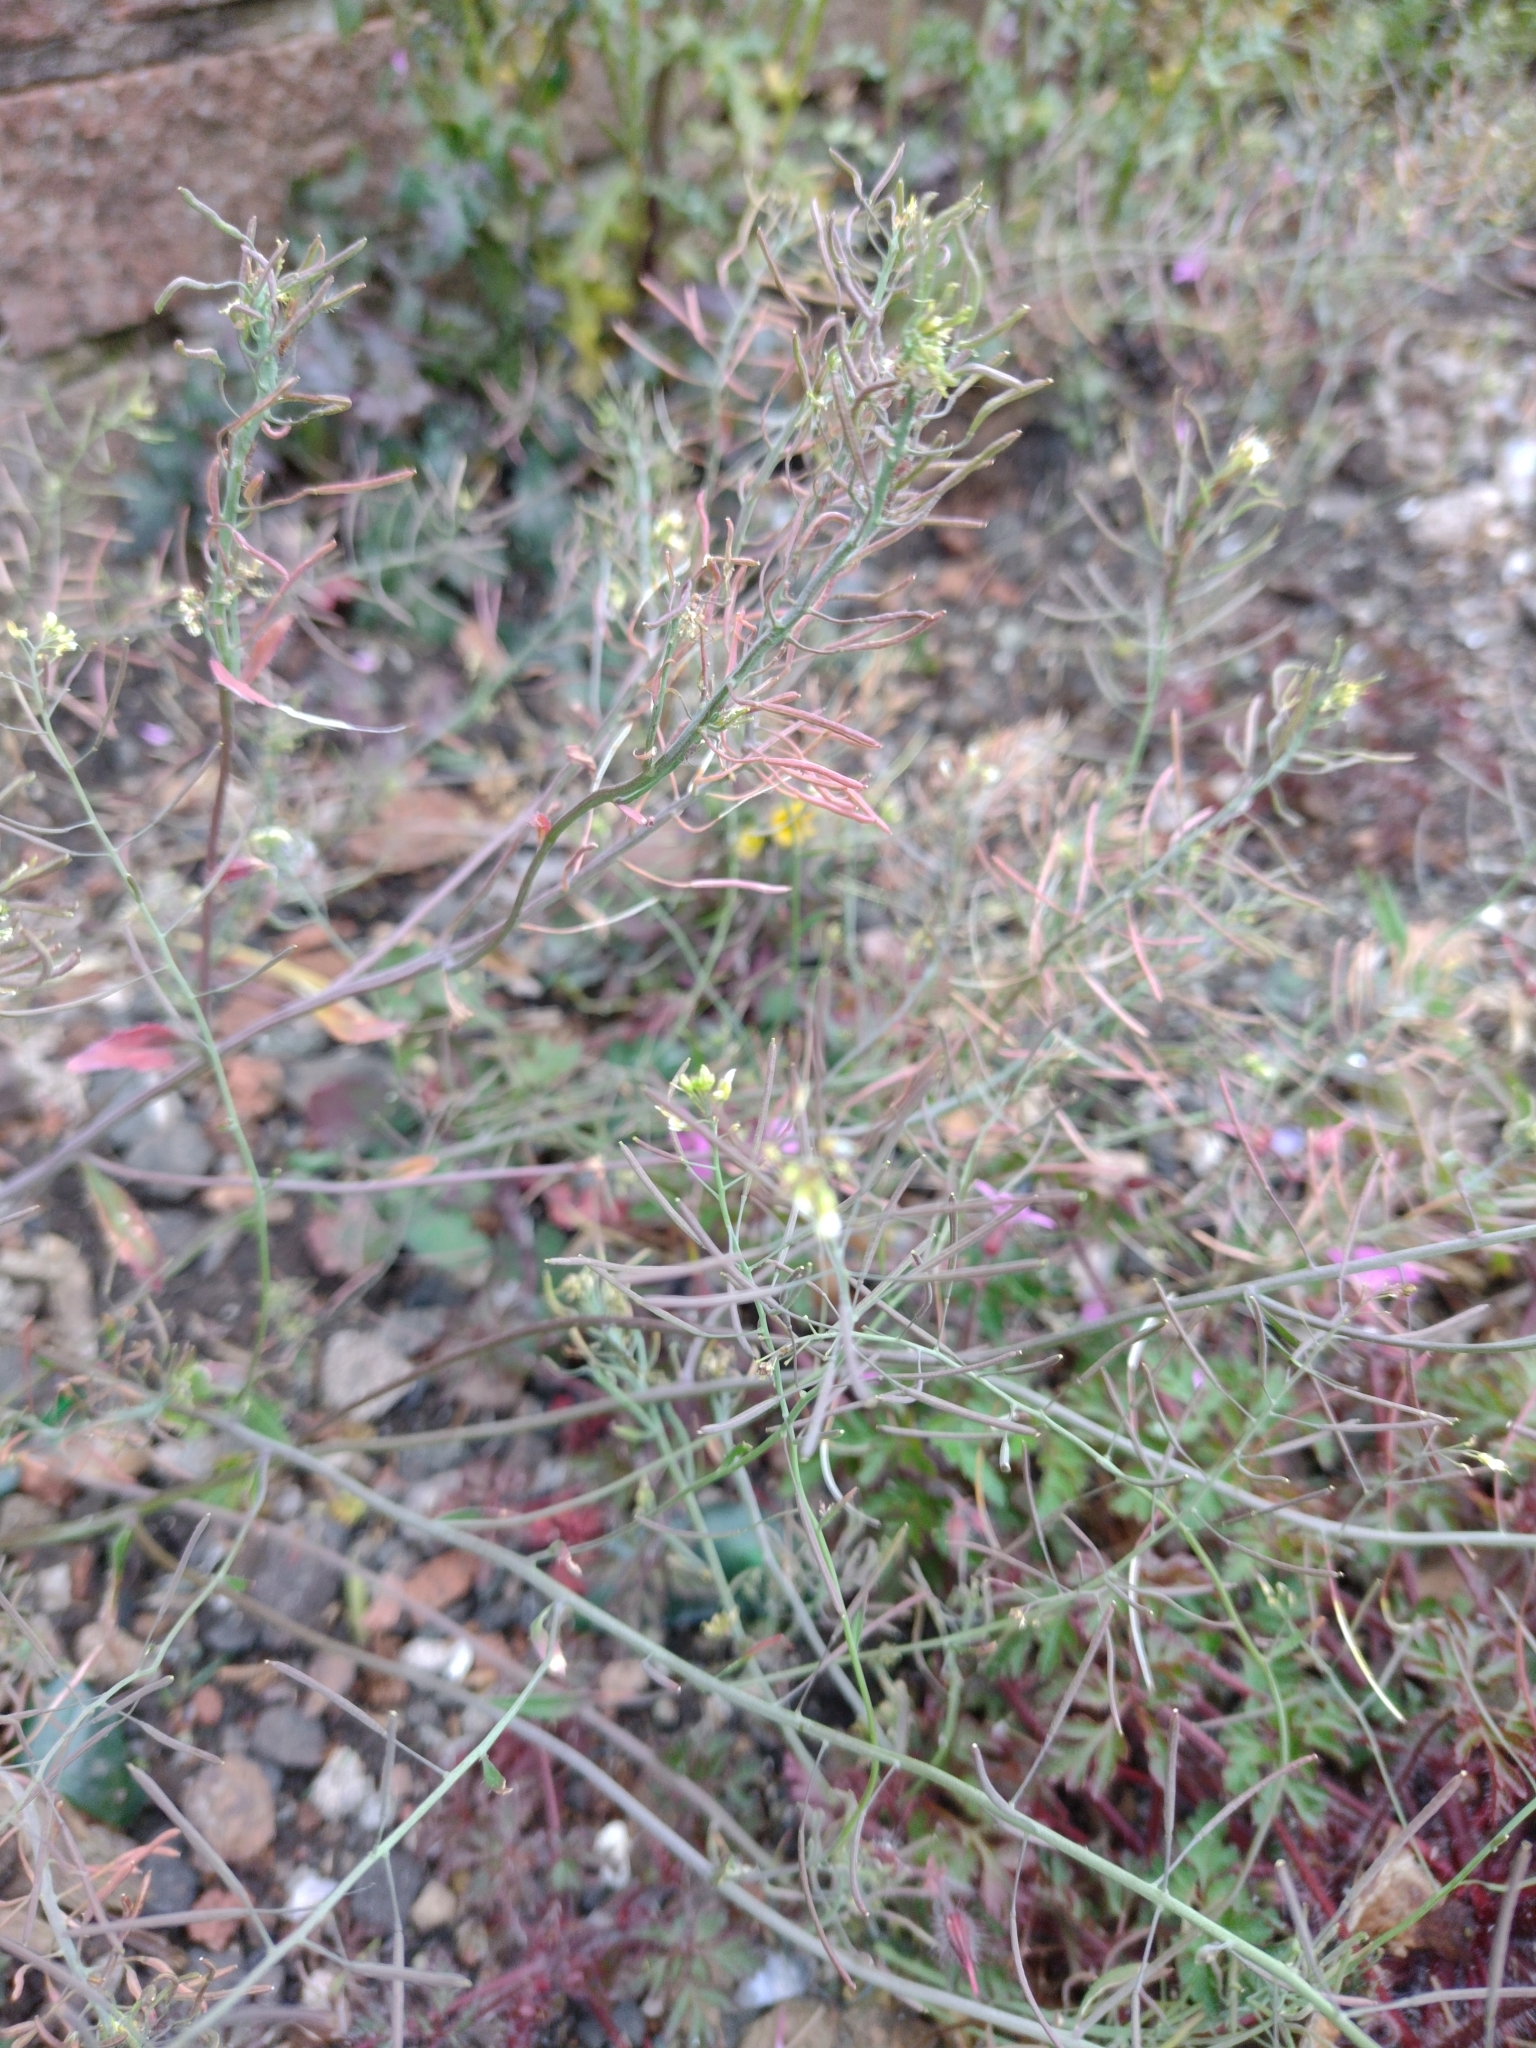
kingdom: Plantae
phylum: Tracheophyta
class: Magnoliopsida
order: Brassicales
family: Brassicaceae
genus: Arabidopsis
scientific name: Arabidopsis thaliana
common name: Thale cress
